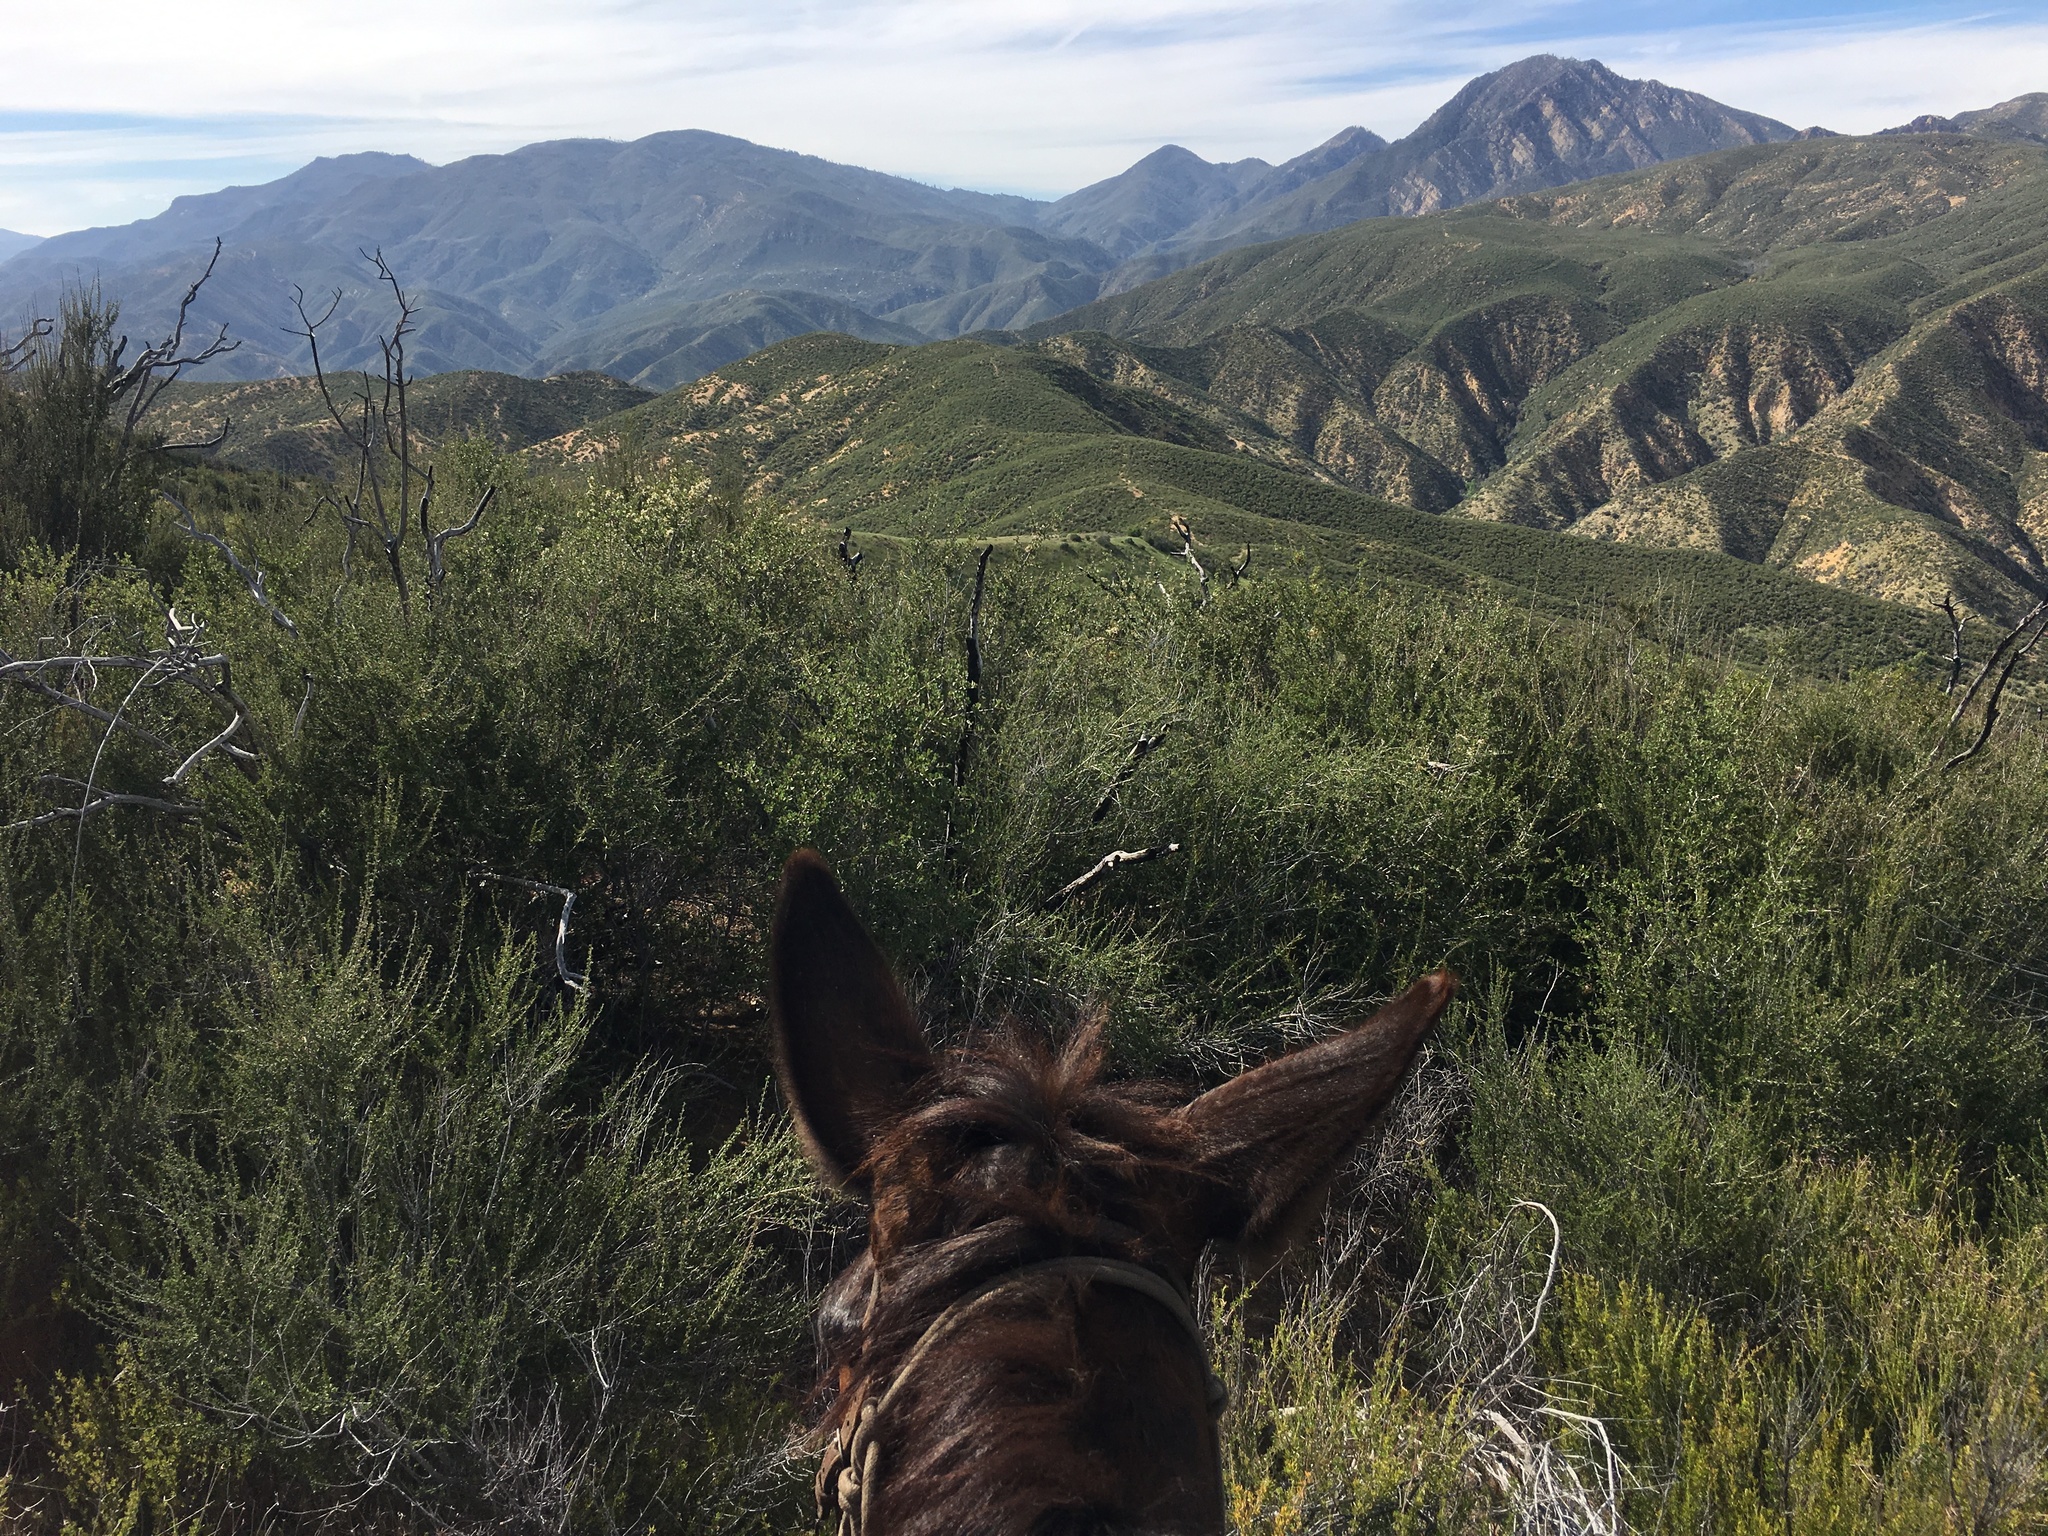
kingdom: Plantae
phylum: Tracheophyta
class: Magnoliopsida
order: Rosales
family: Rosaceae
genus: Adenostoma
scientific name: Adenostoma fasciculatum
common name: Chamise
